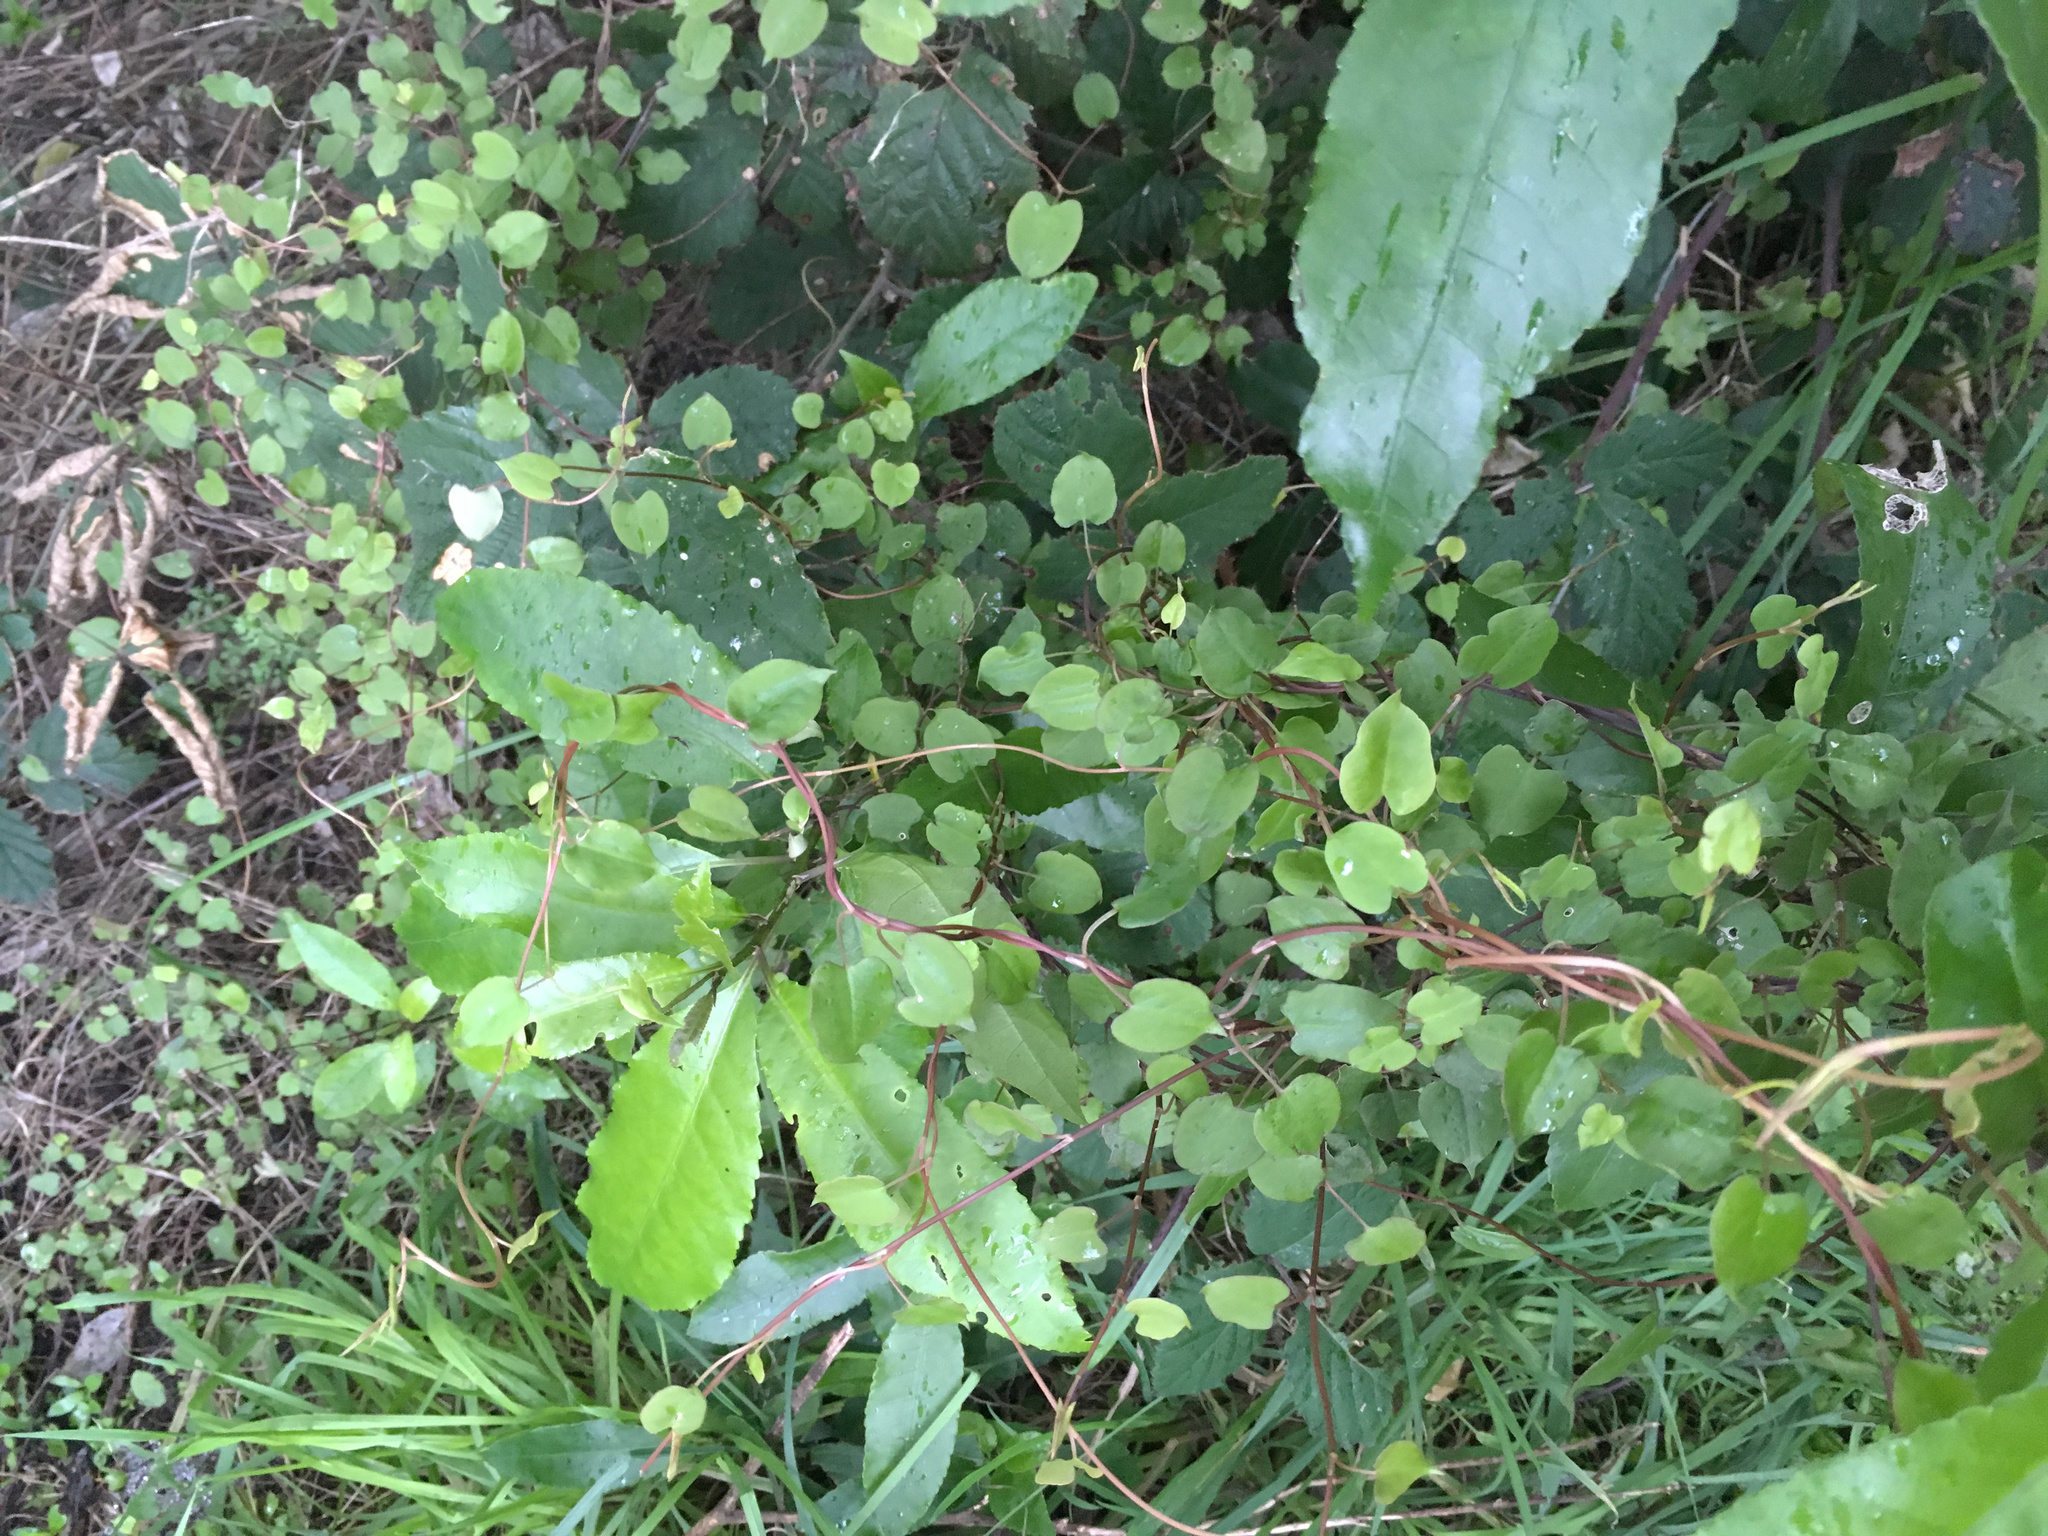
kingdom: Plantae
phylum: Tracheophyta
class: Magnoliopsida
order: Caryophyllales
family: Polygonaceae
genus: Muehlenbeckia
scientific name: Muehlenbeckia australis
